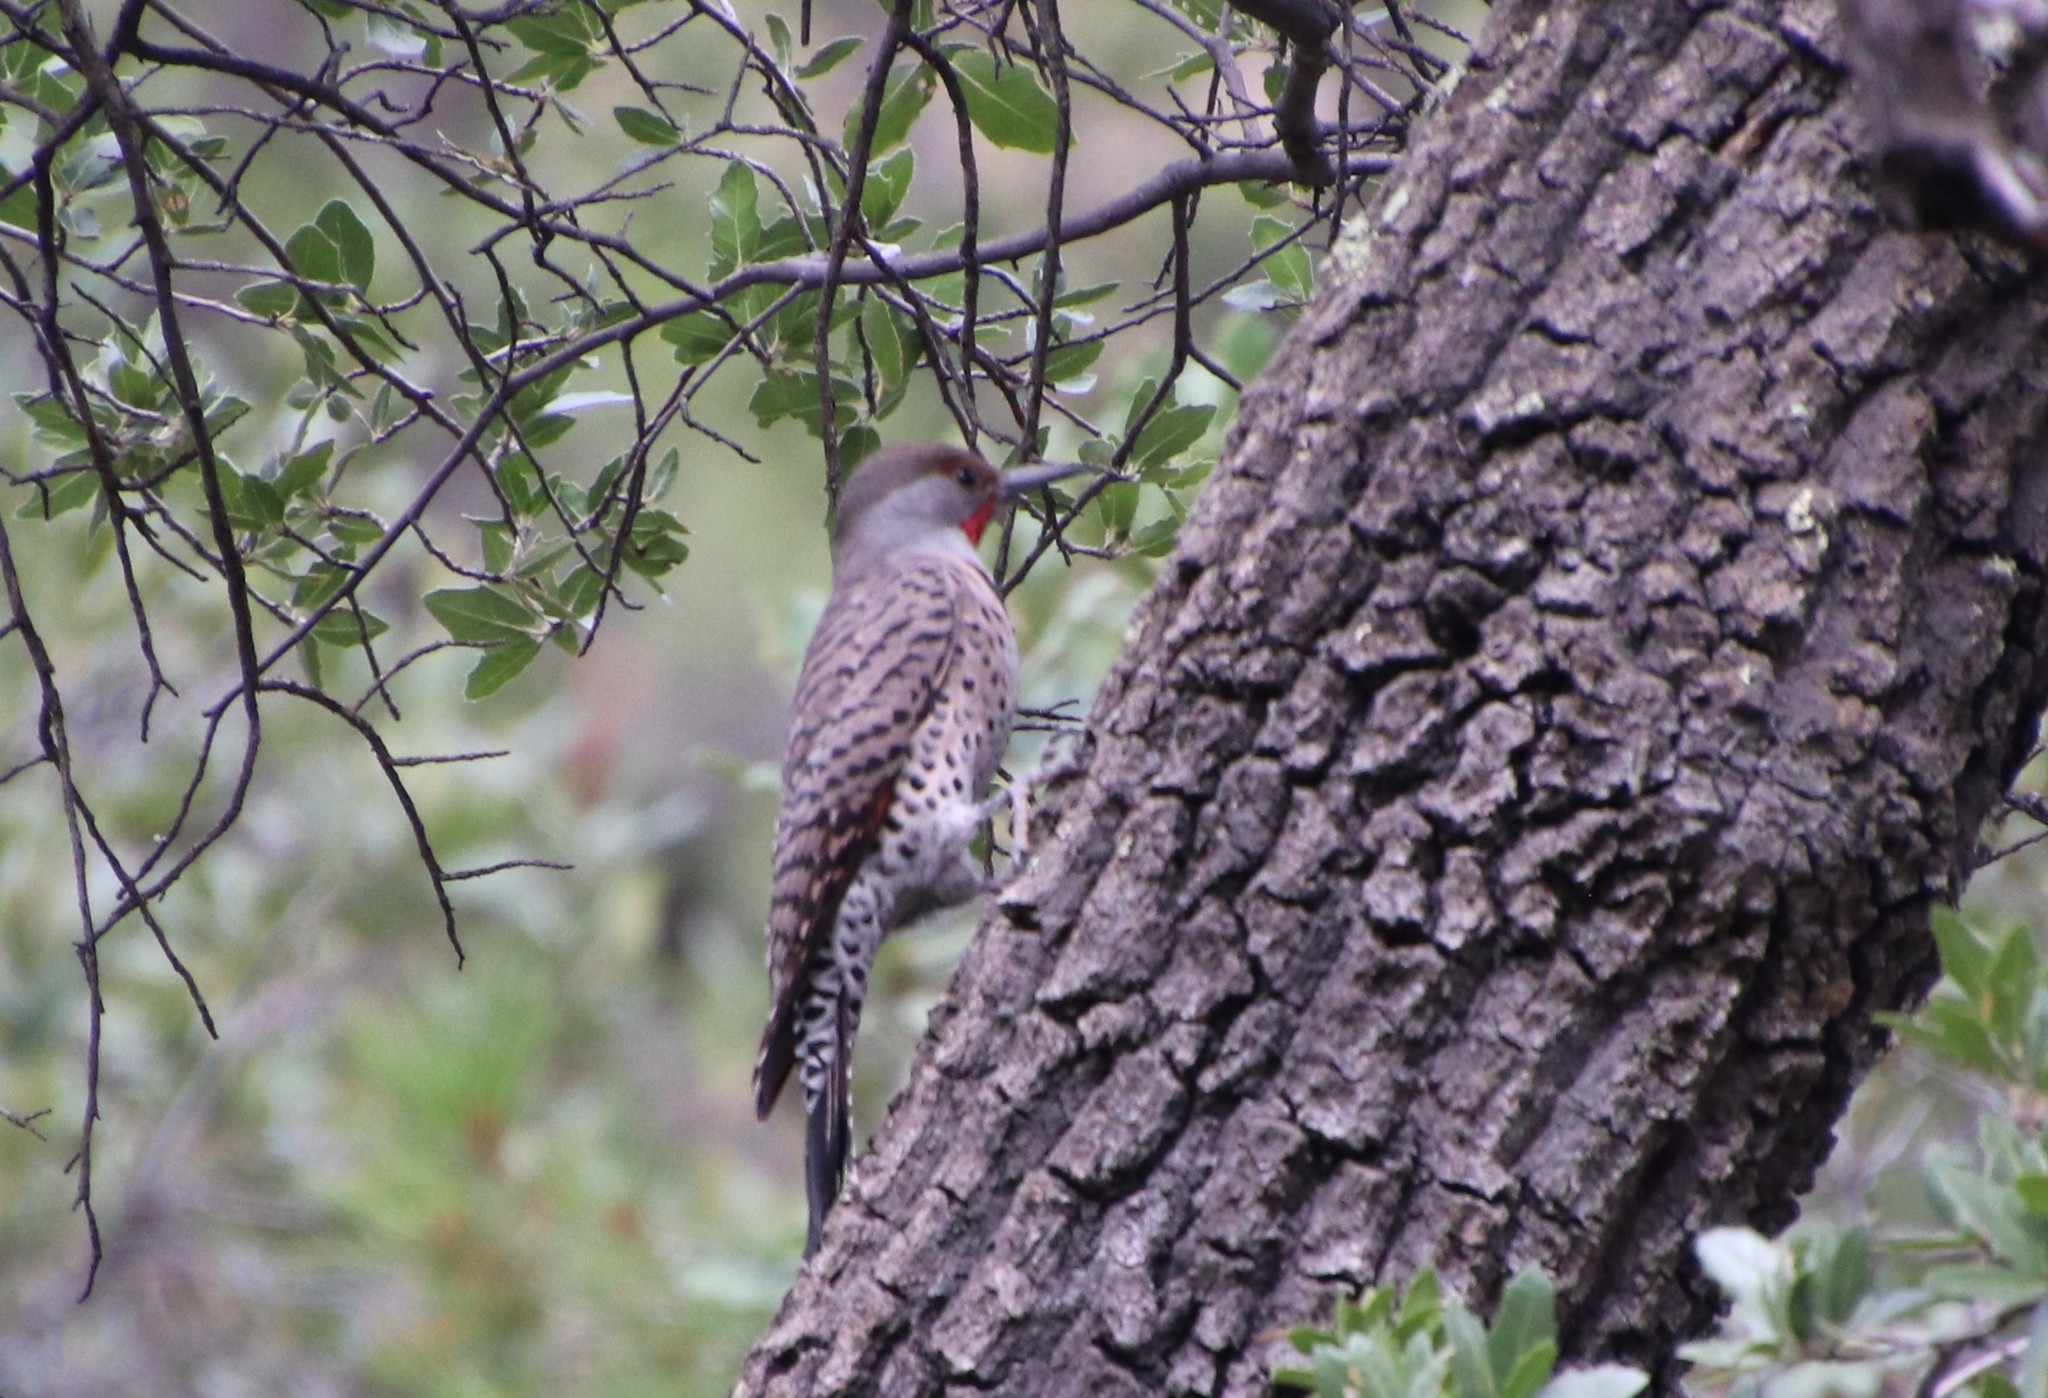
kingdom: Animalia
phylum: Chordata
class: Aves
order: Piciformes
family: Picidae
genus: Colaptes
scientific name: Colaptes auratus
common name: Northern flicker
